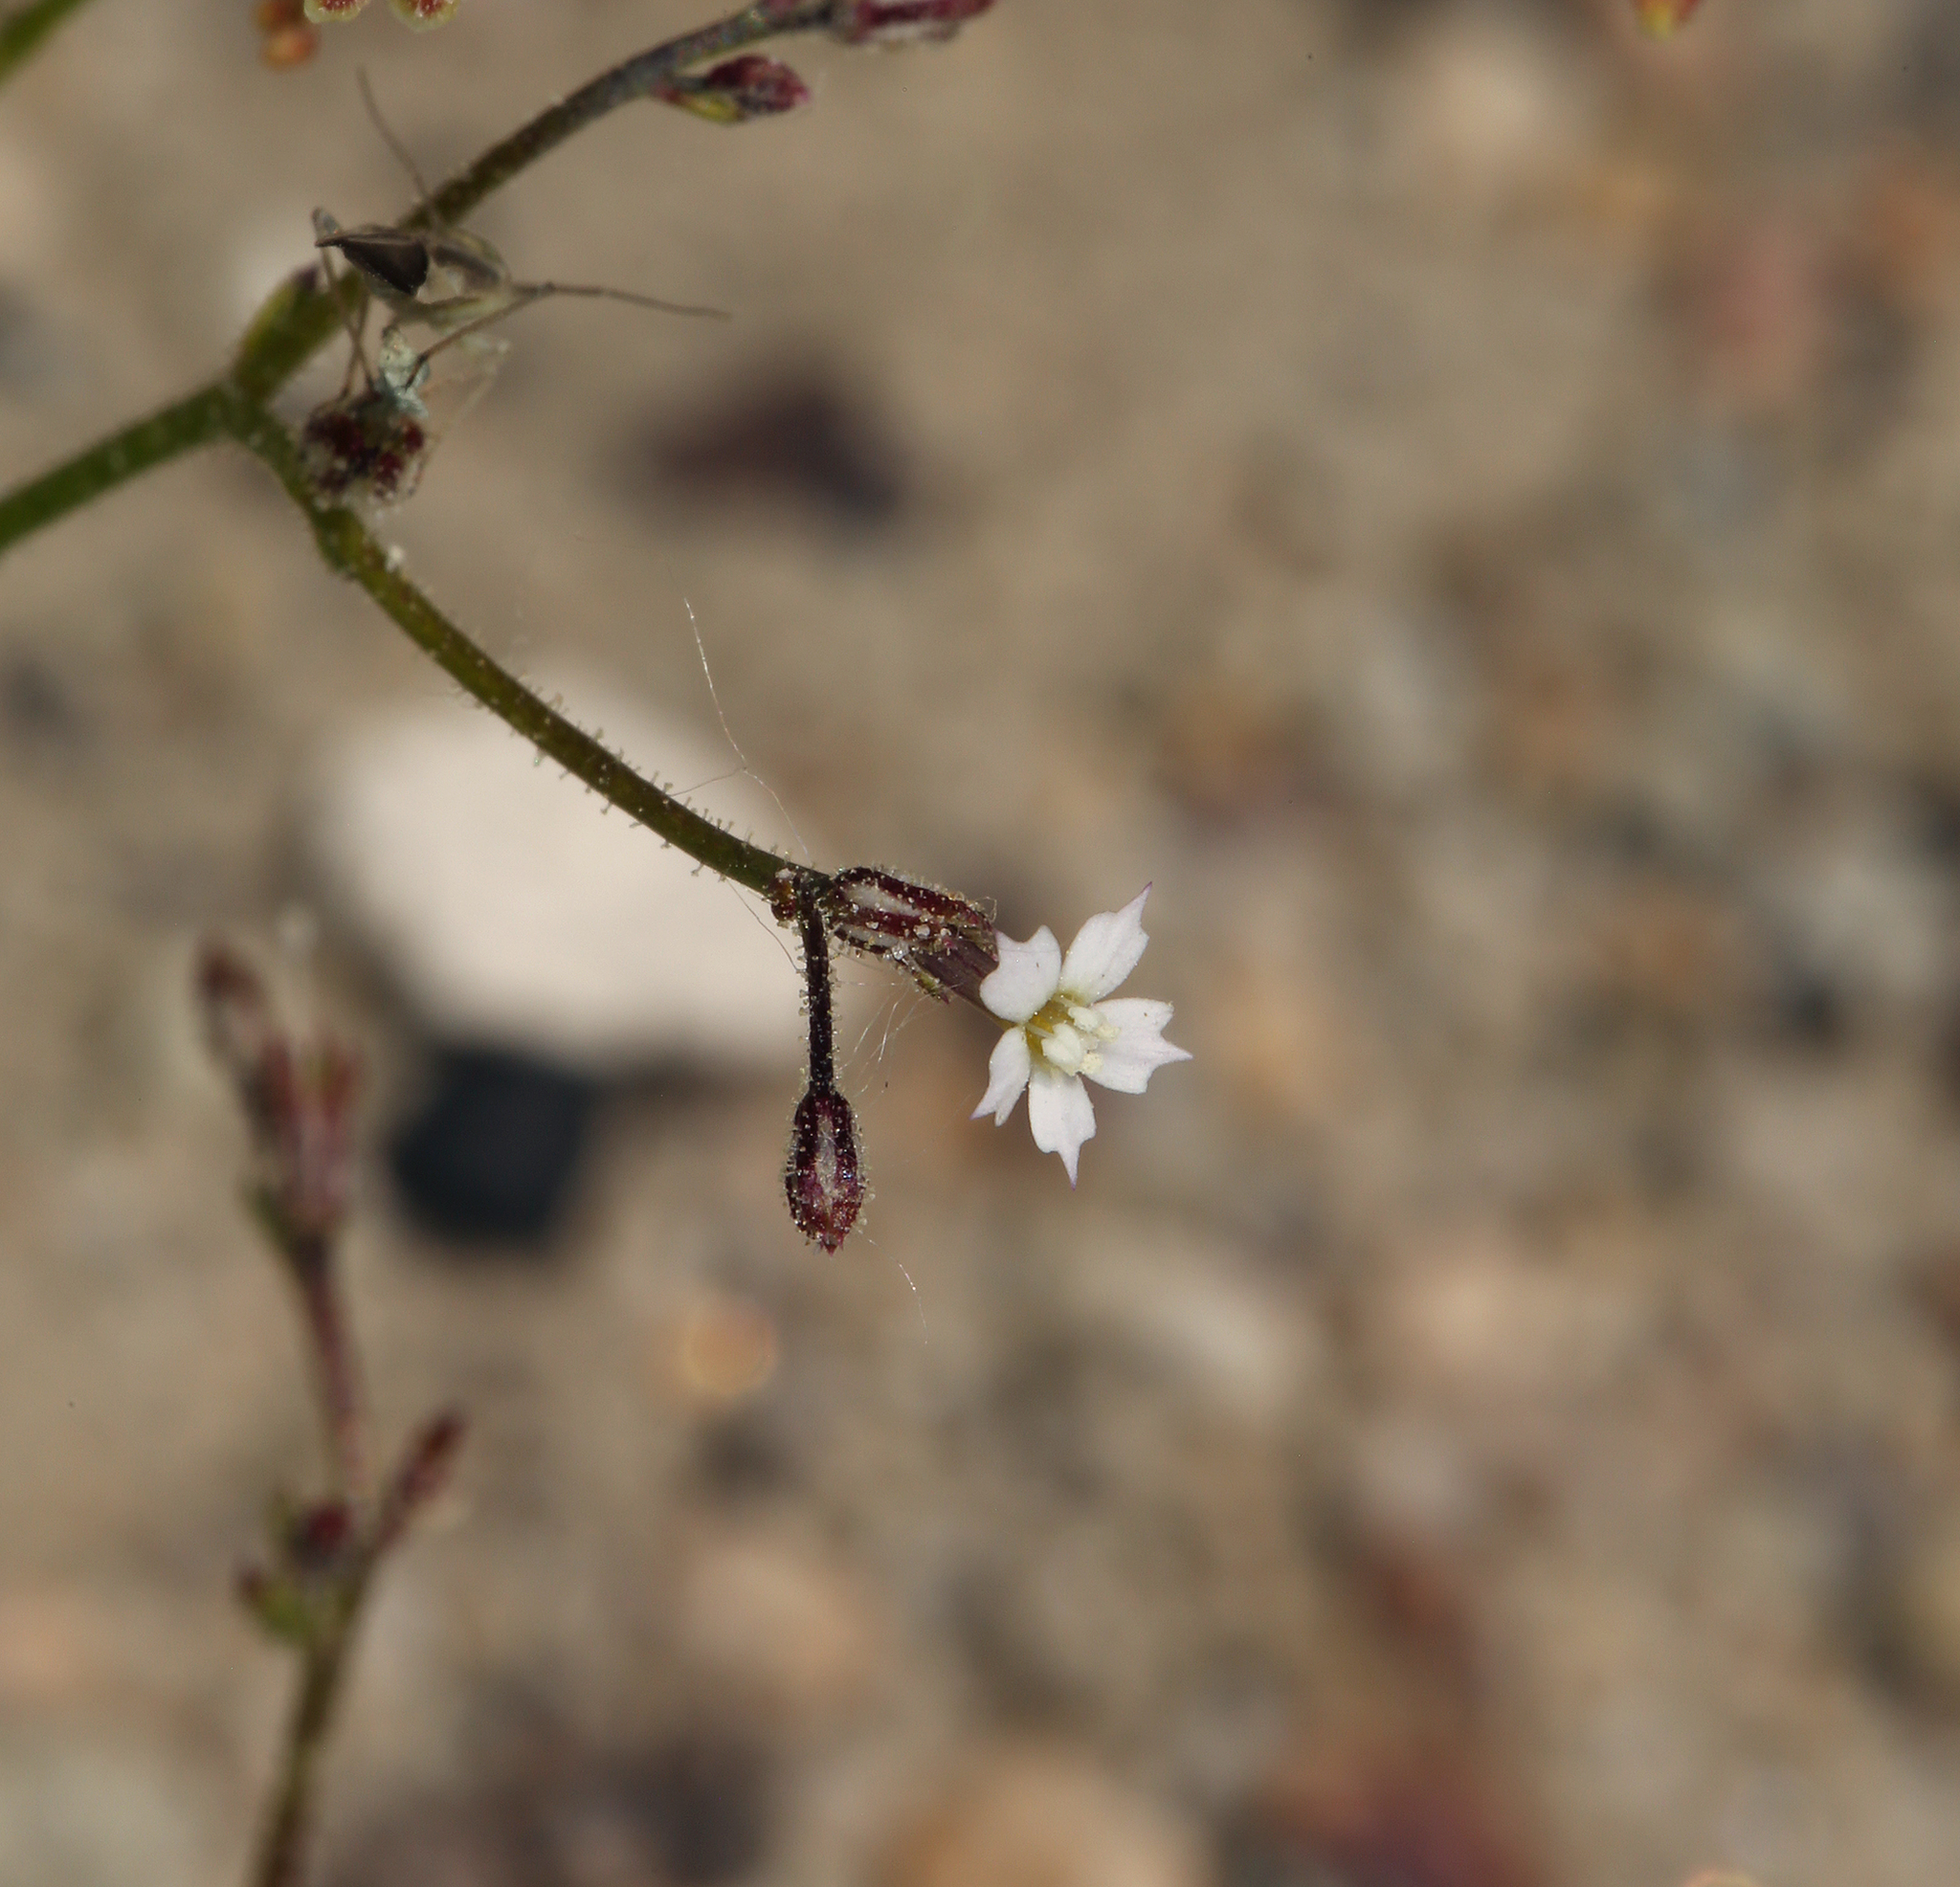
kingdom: Plantae
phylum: Tracheophyta
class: Magnoliopsida
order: Ericales
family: Polemoniaceae
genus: Aliciella
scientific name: Aliciella leptomeria
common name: Sand gilia
